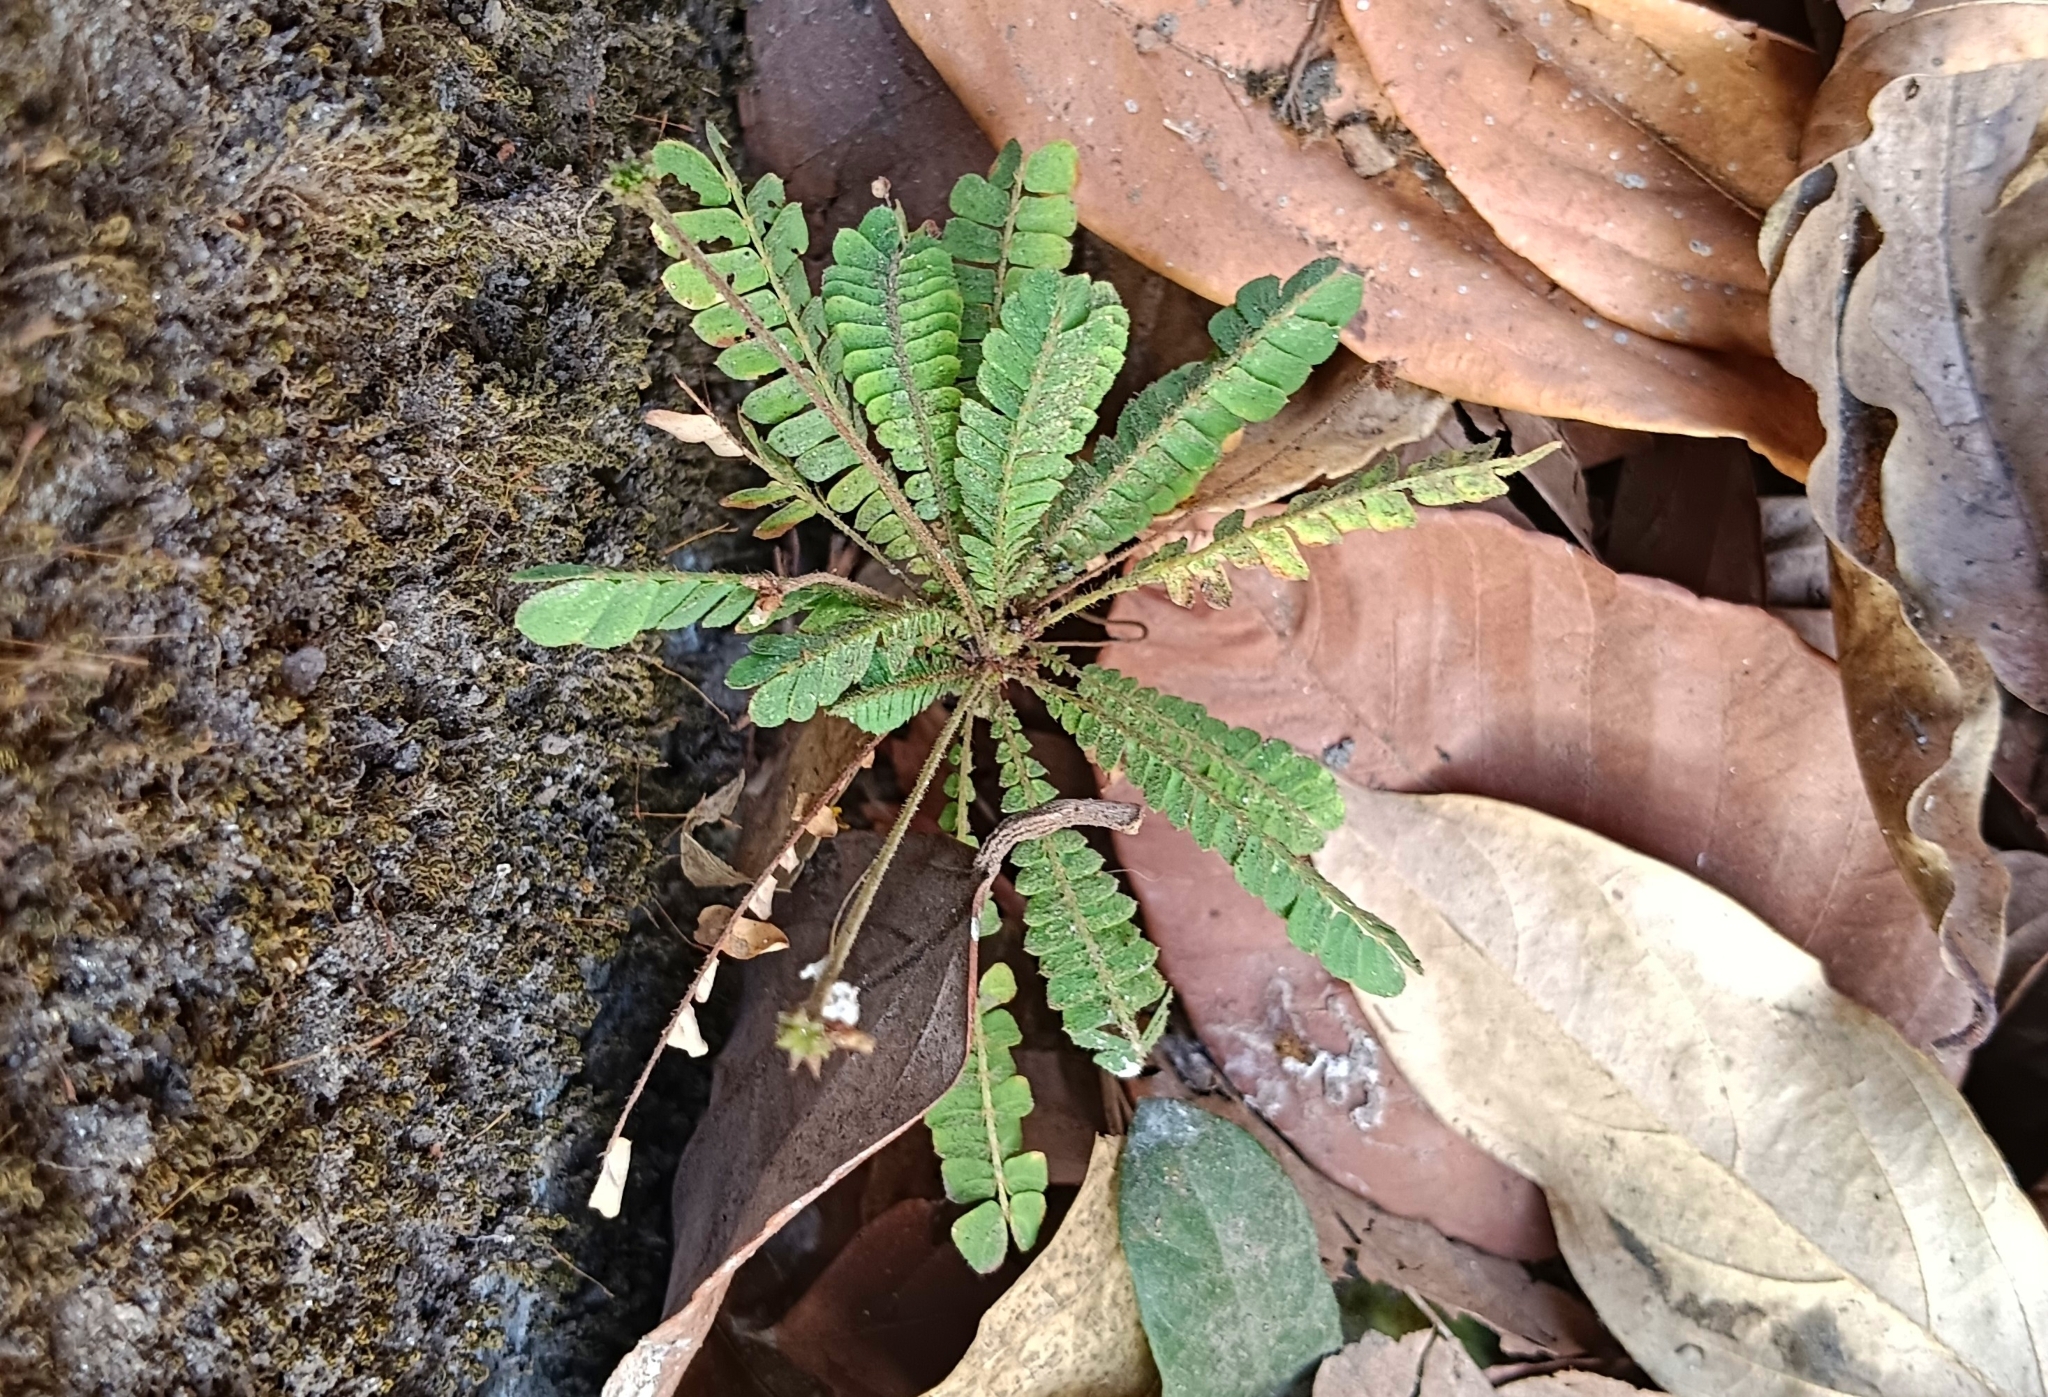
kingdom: Plantae
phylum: Tracheophyta
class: Magnoliopsida
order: Oxalidales
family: Oxalidaceae
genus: Biophytum
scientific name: Biophytum sensitivum
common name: Lifeplant
